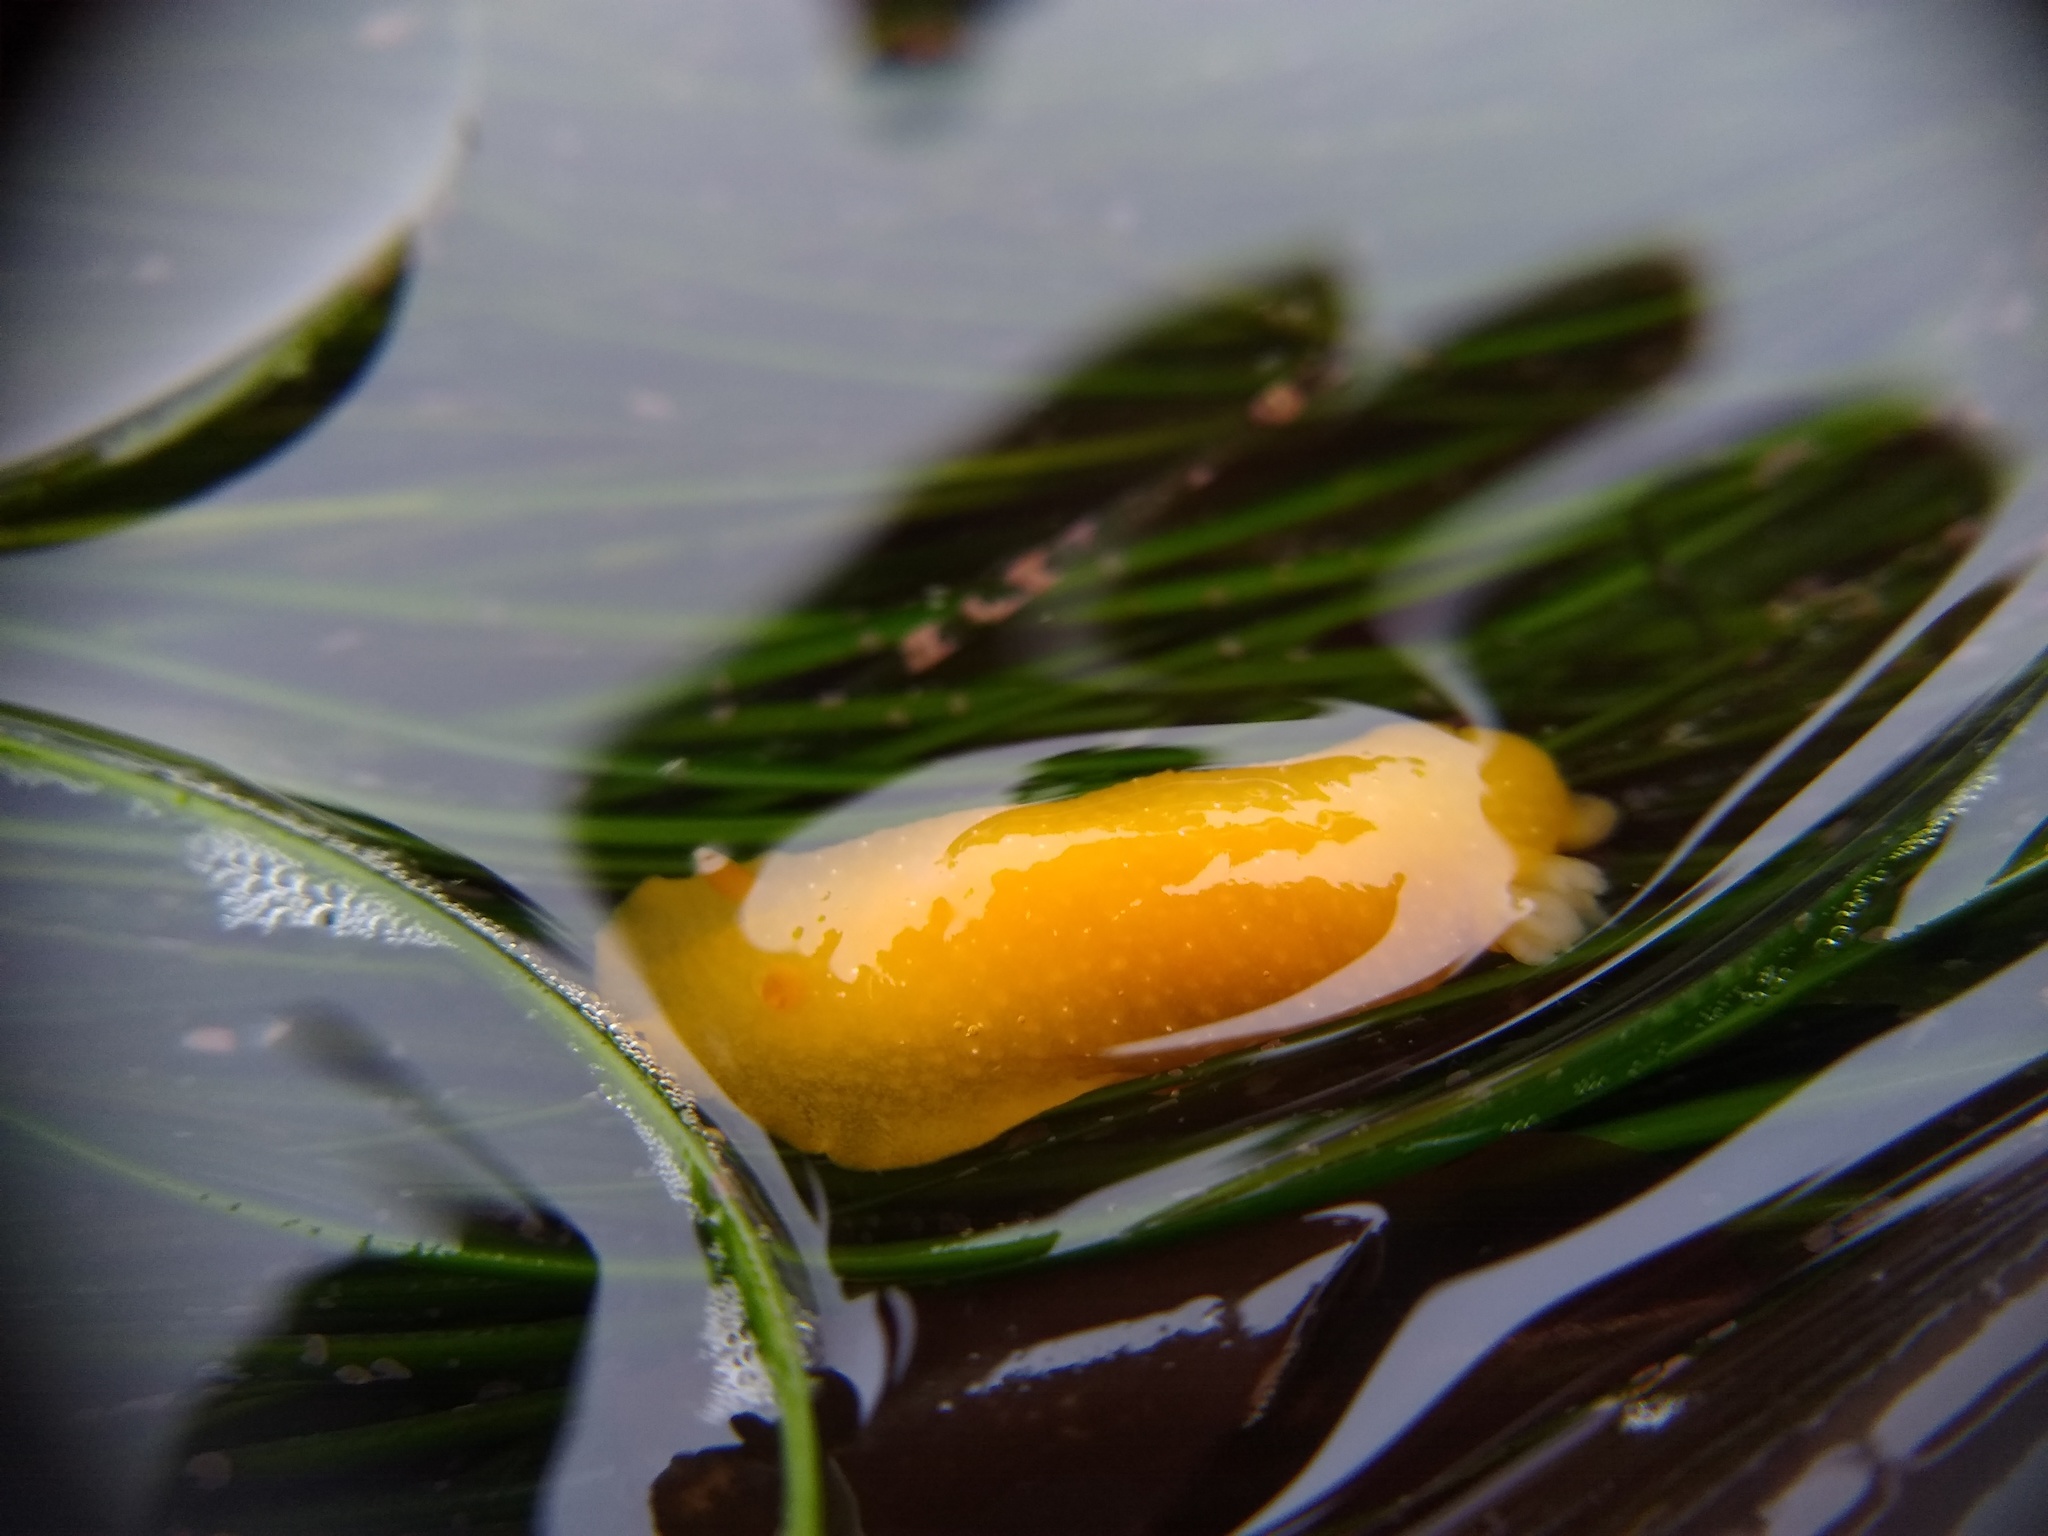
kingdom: Animalia
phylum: Mollusca
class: Gastropoda
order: Nudibranchia
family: Dendrodorididae
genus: Doriopsilla
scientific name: Doriopsilla fulva
